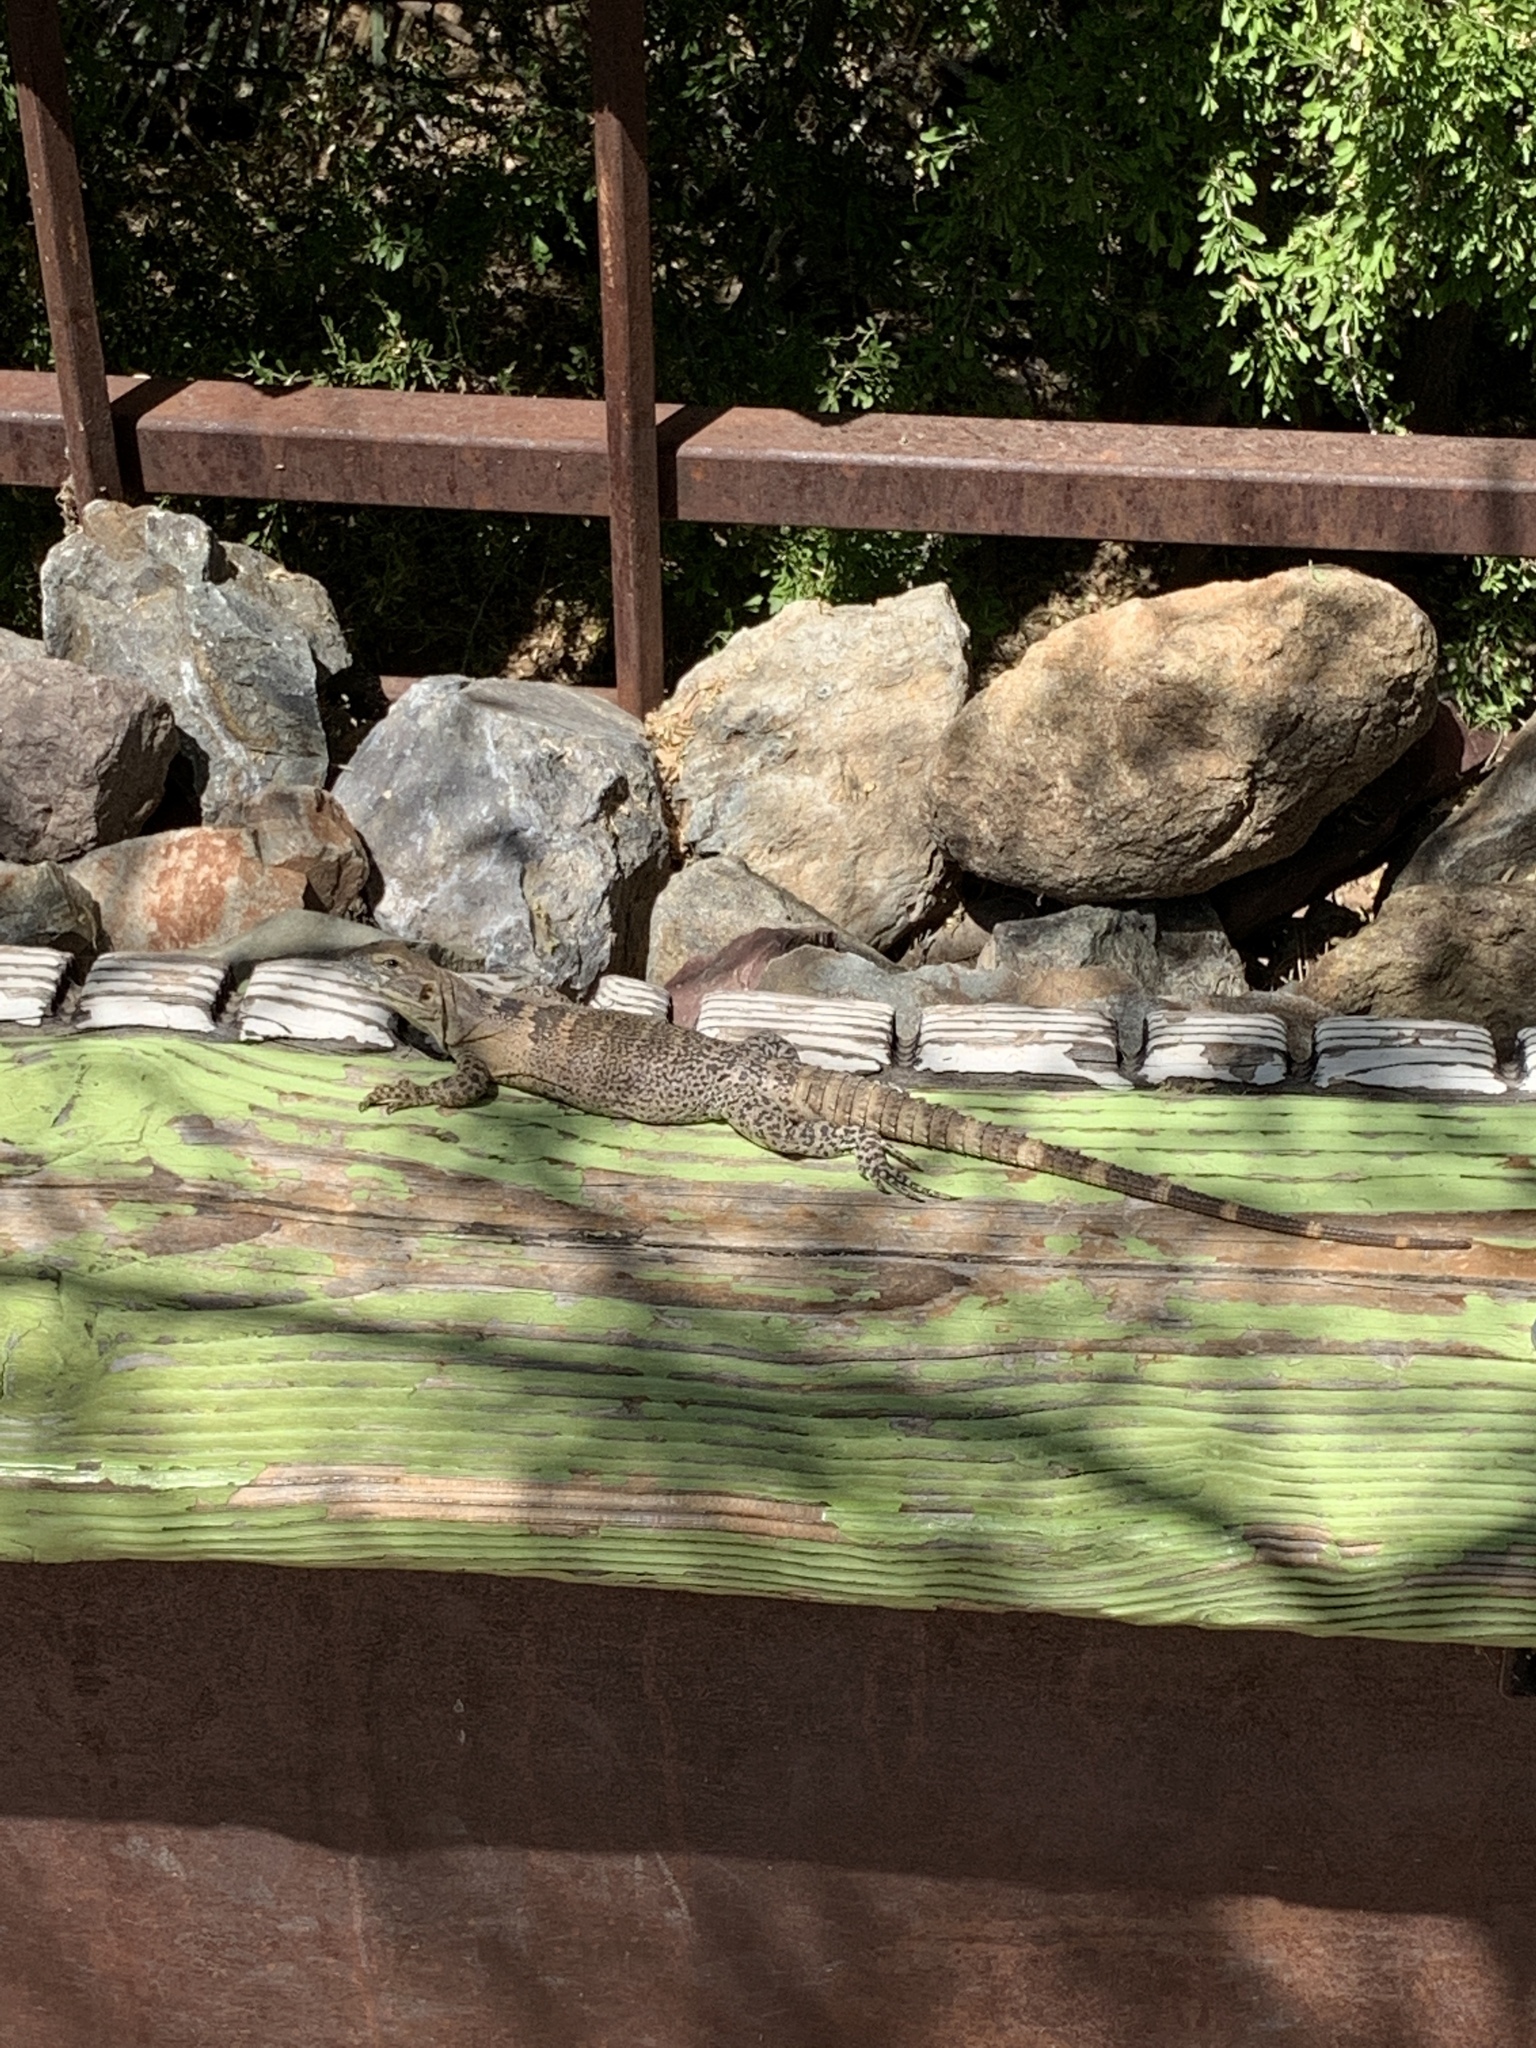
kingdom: Animalia
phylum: Chordata
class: Squamata
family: Iguanidae
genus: Ctenosaura
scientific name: Ctenosaura
